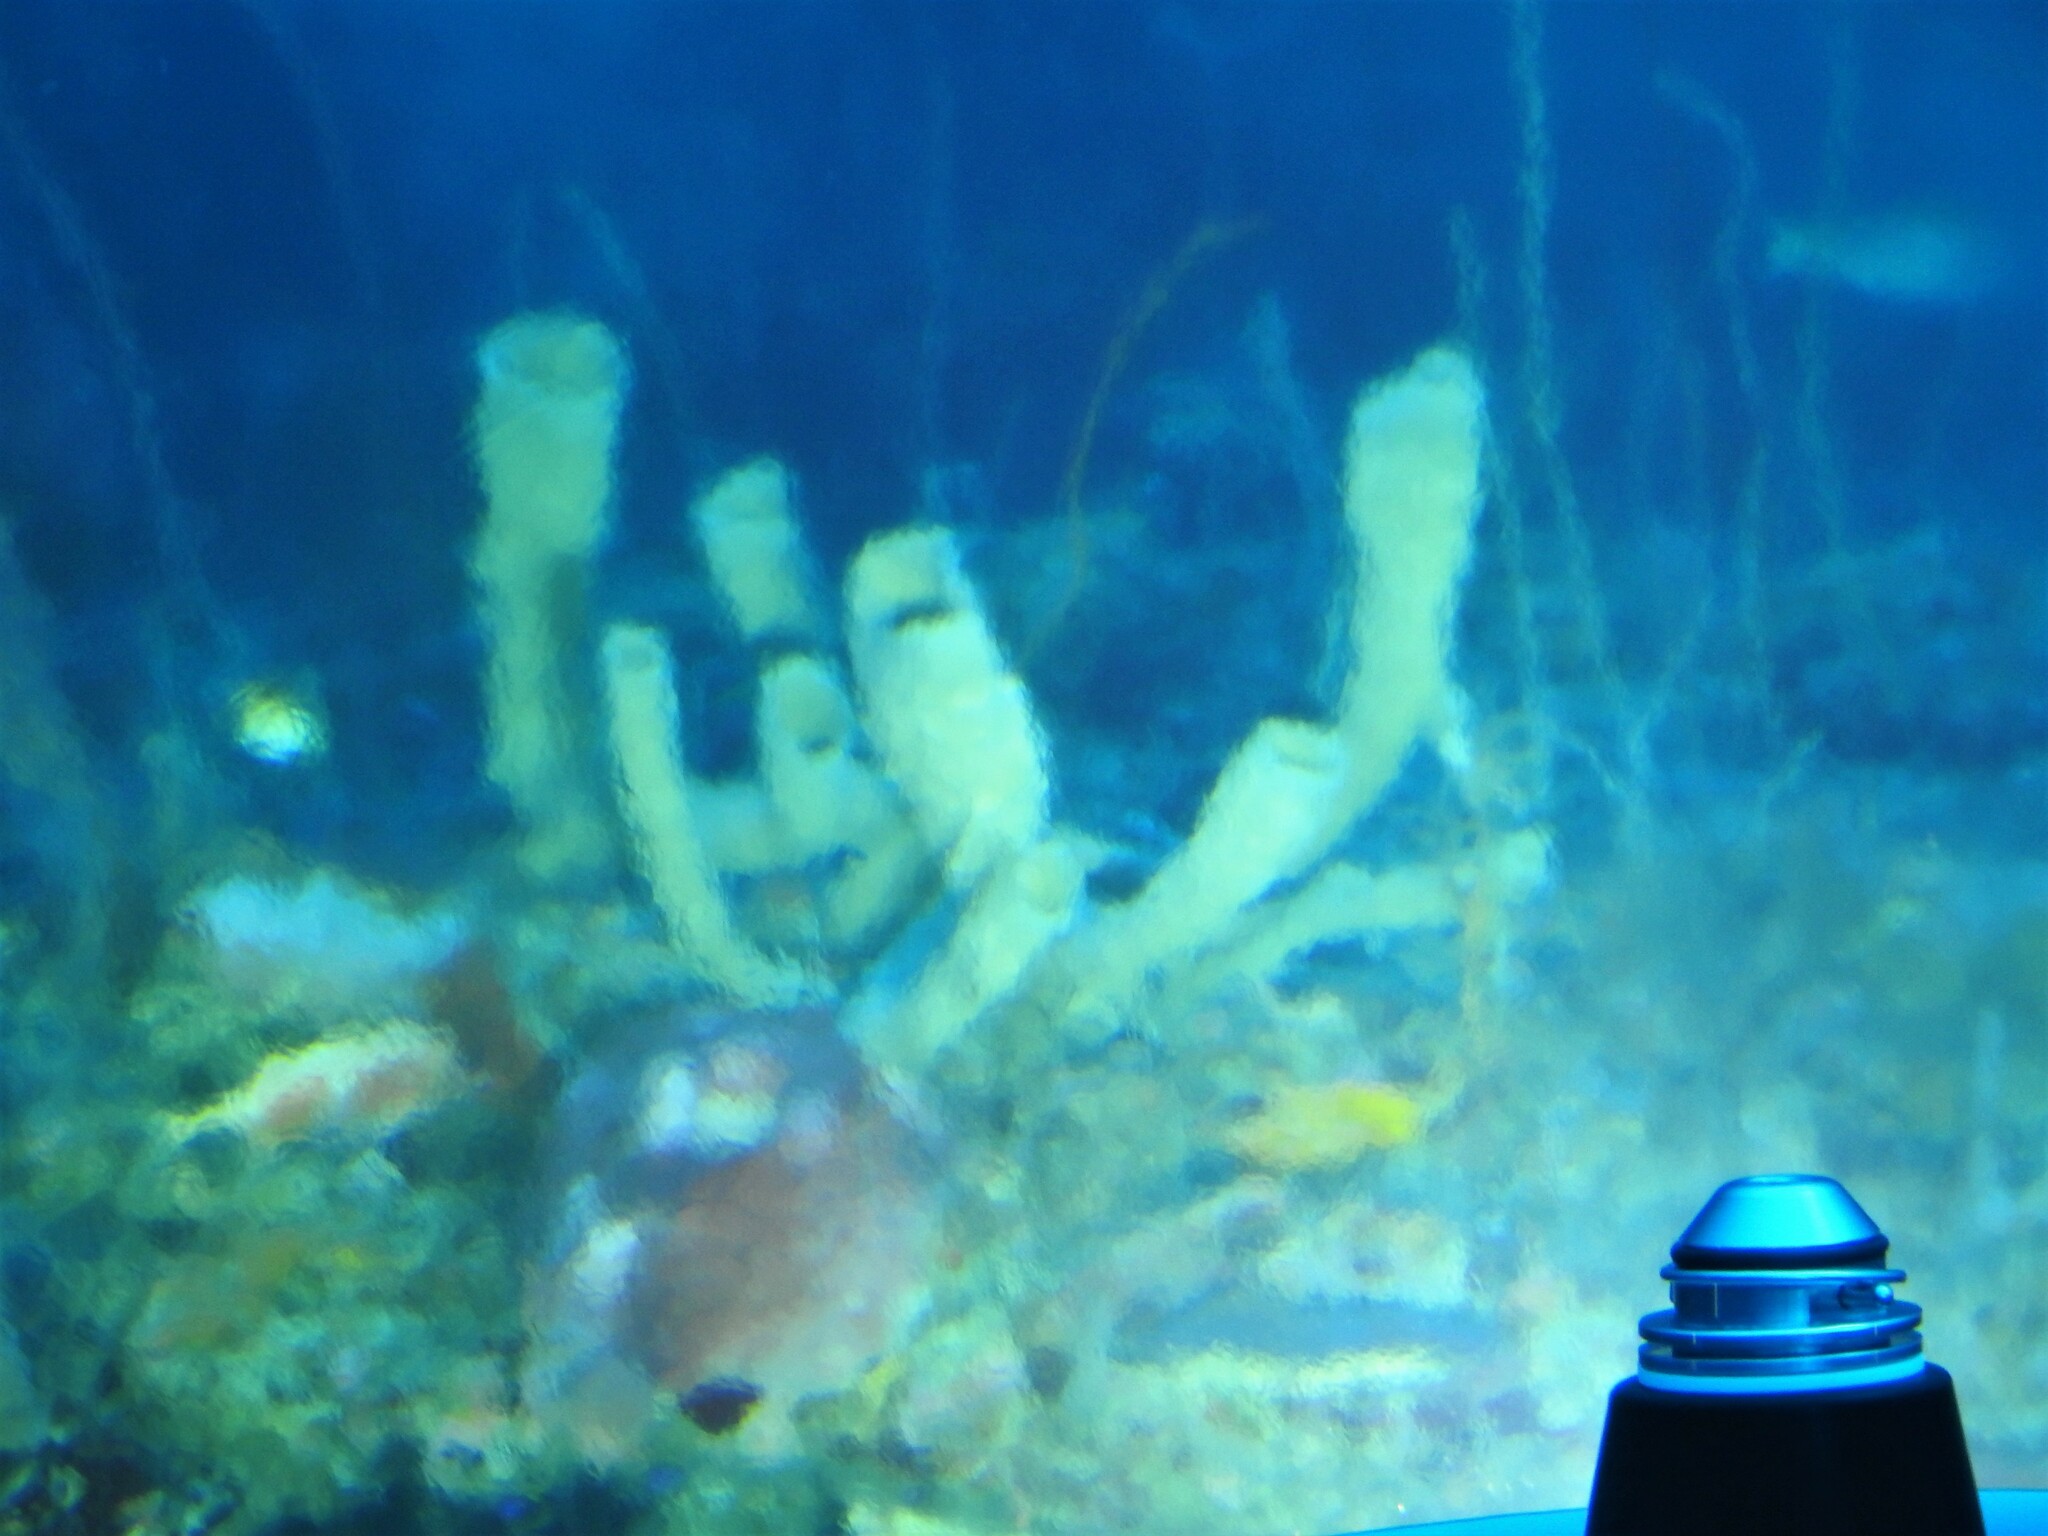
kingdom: Animalia
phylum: Porifera
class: Demospongiae
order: Haplosclerida
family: Callyspongiidae
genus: Callyspongia
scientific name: Callyspongia aculeata
